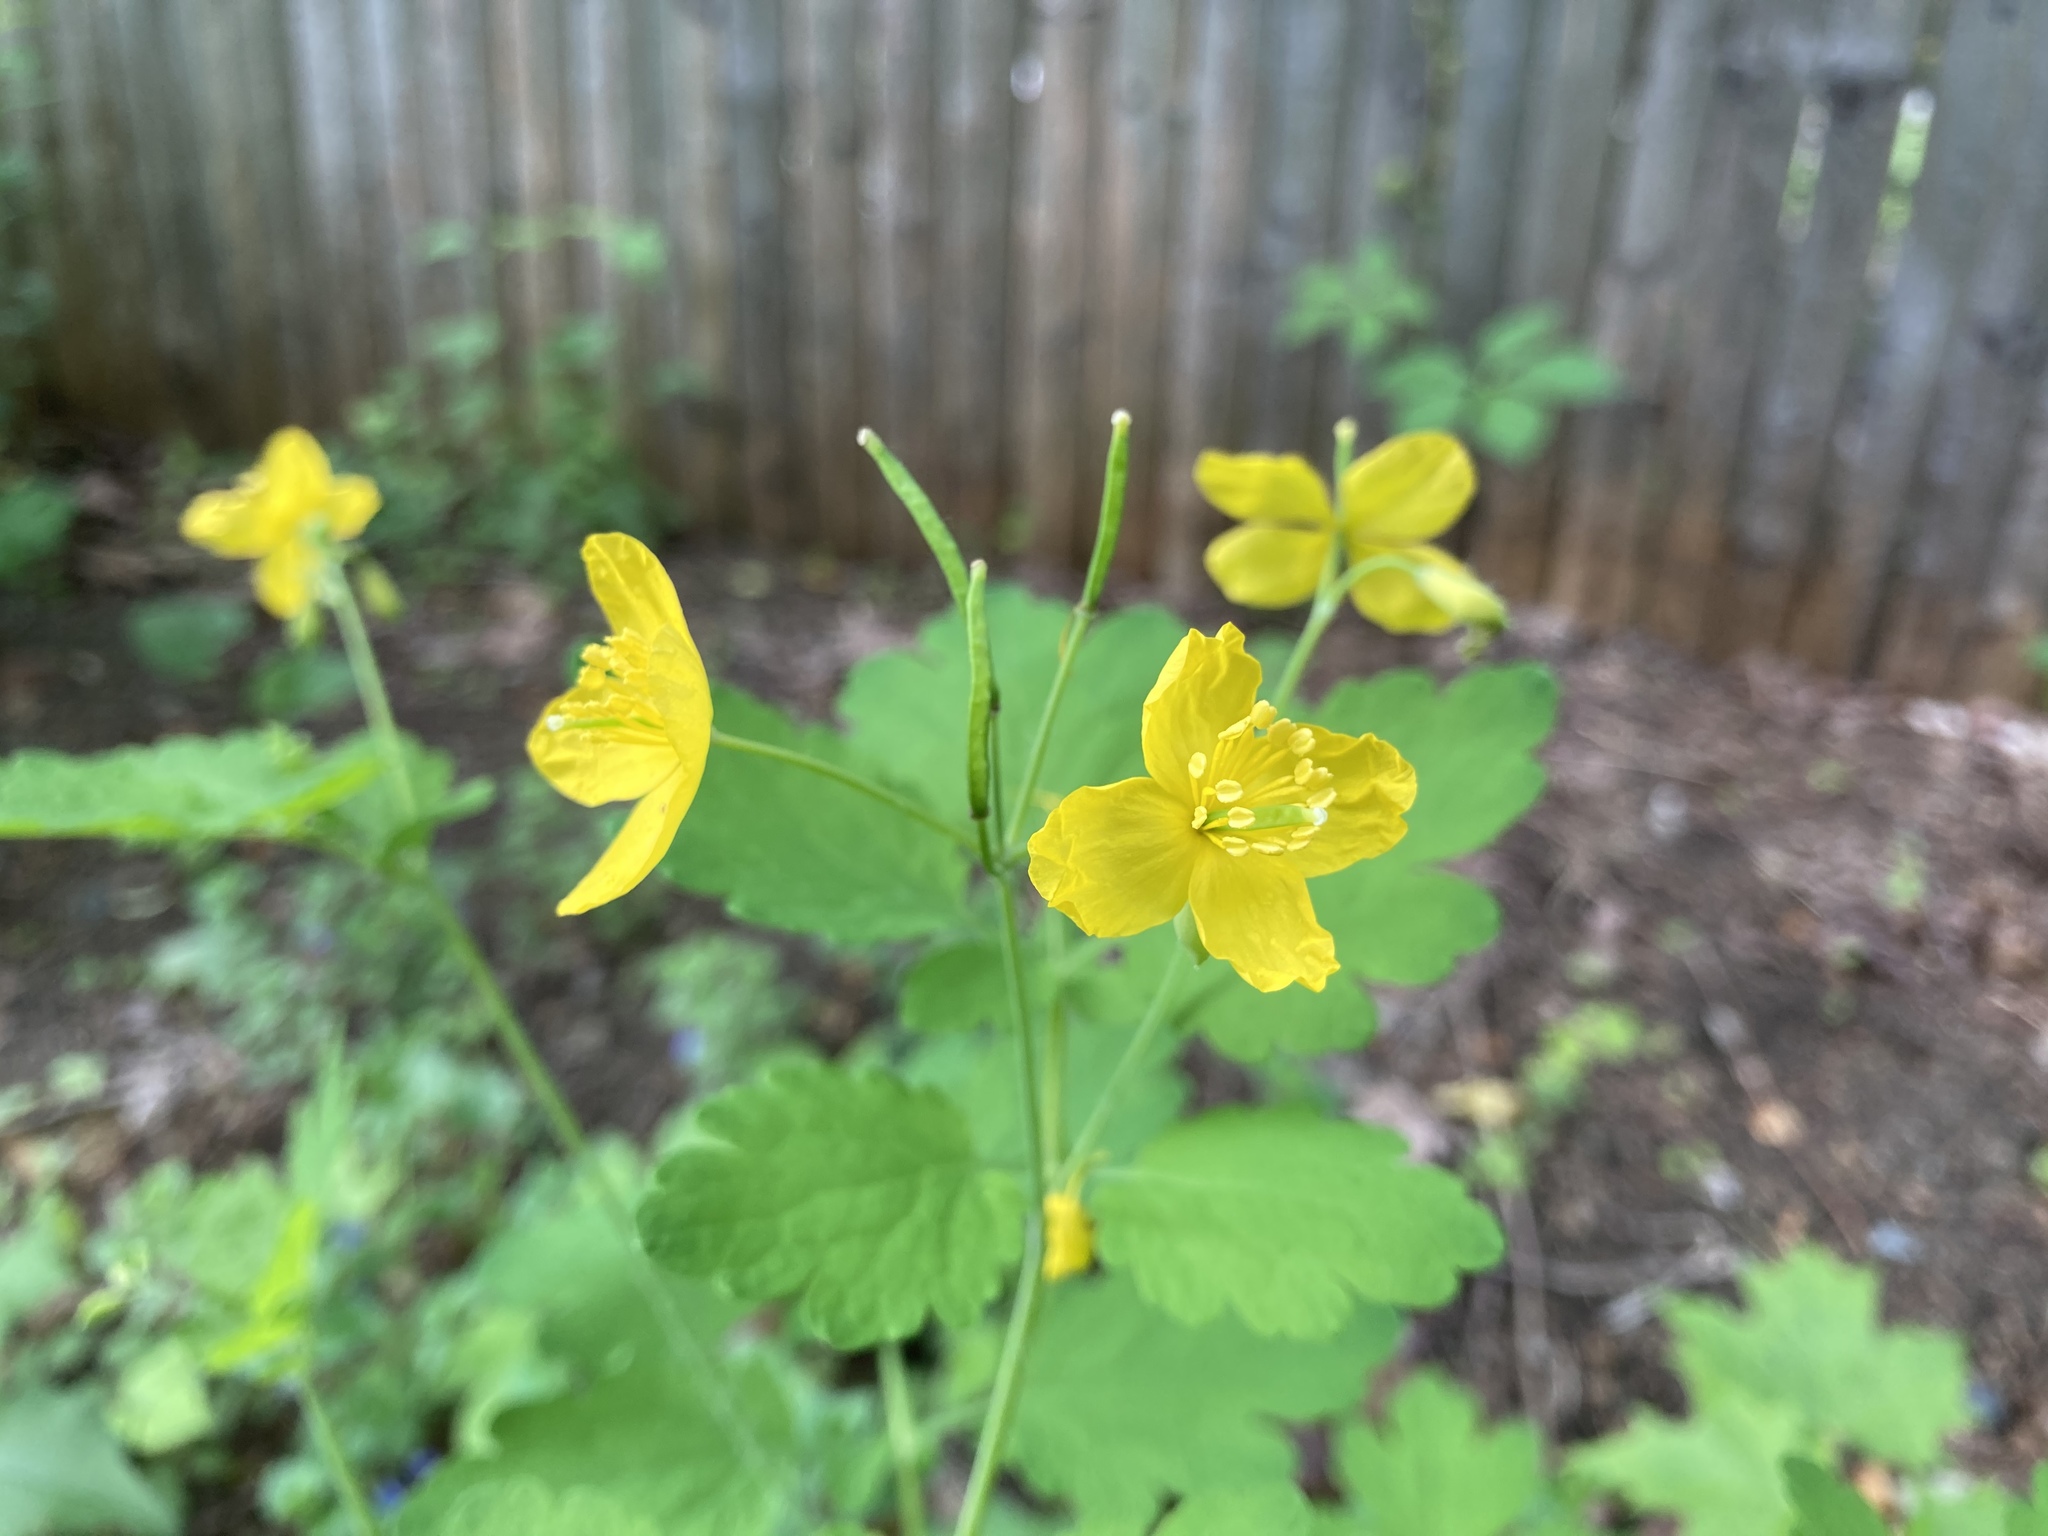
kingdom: Plantae
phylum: Tracheophyta
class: Magnoliopsida
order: Ranunculales
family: Papaveraceae
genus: Chelidonium
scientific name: Chelidonium majus
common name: Greater celandine
